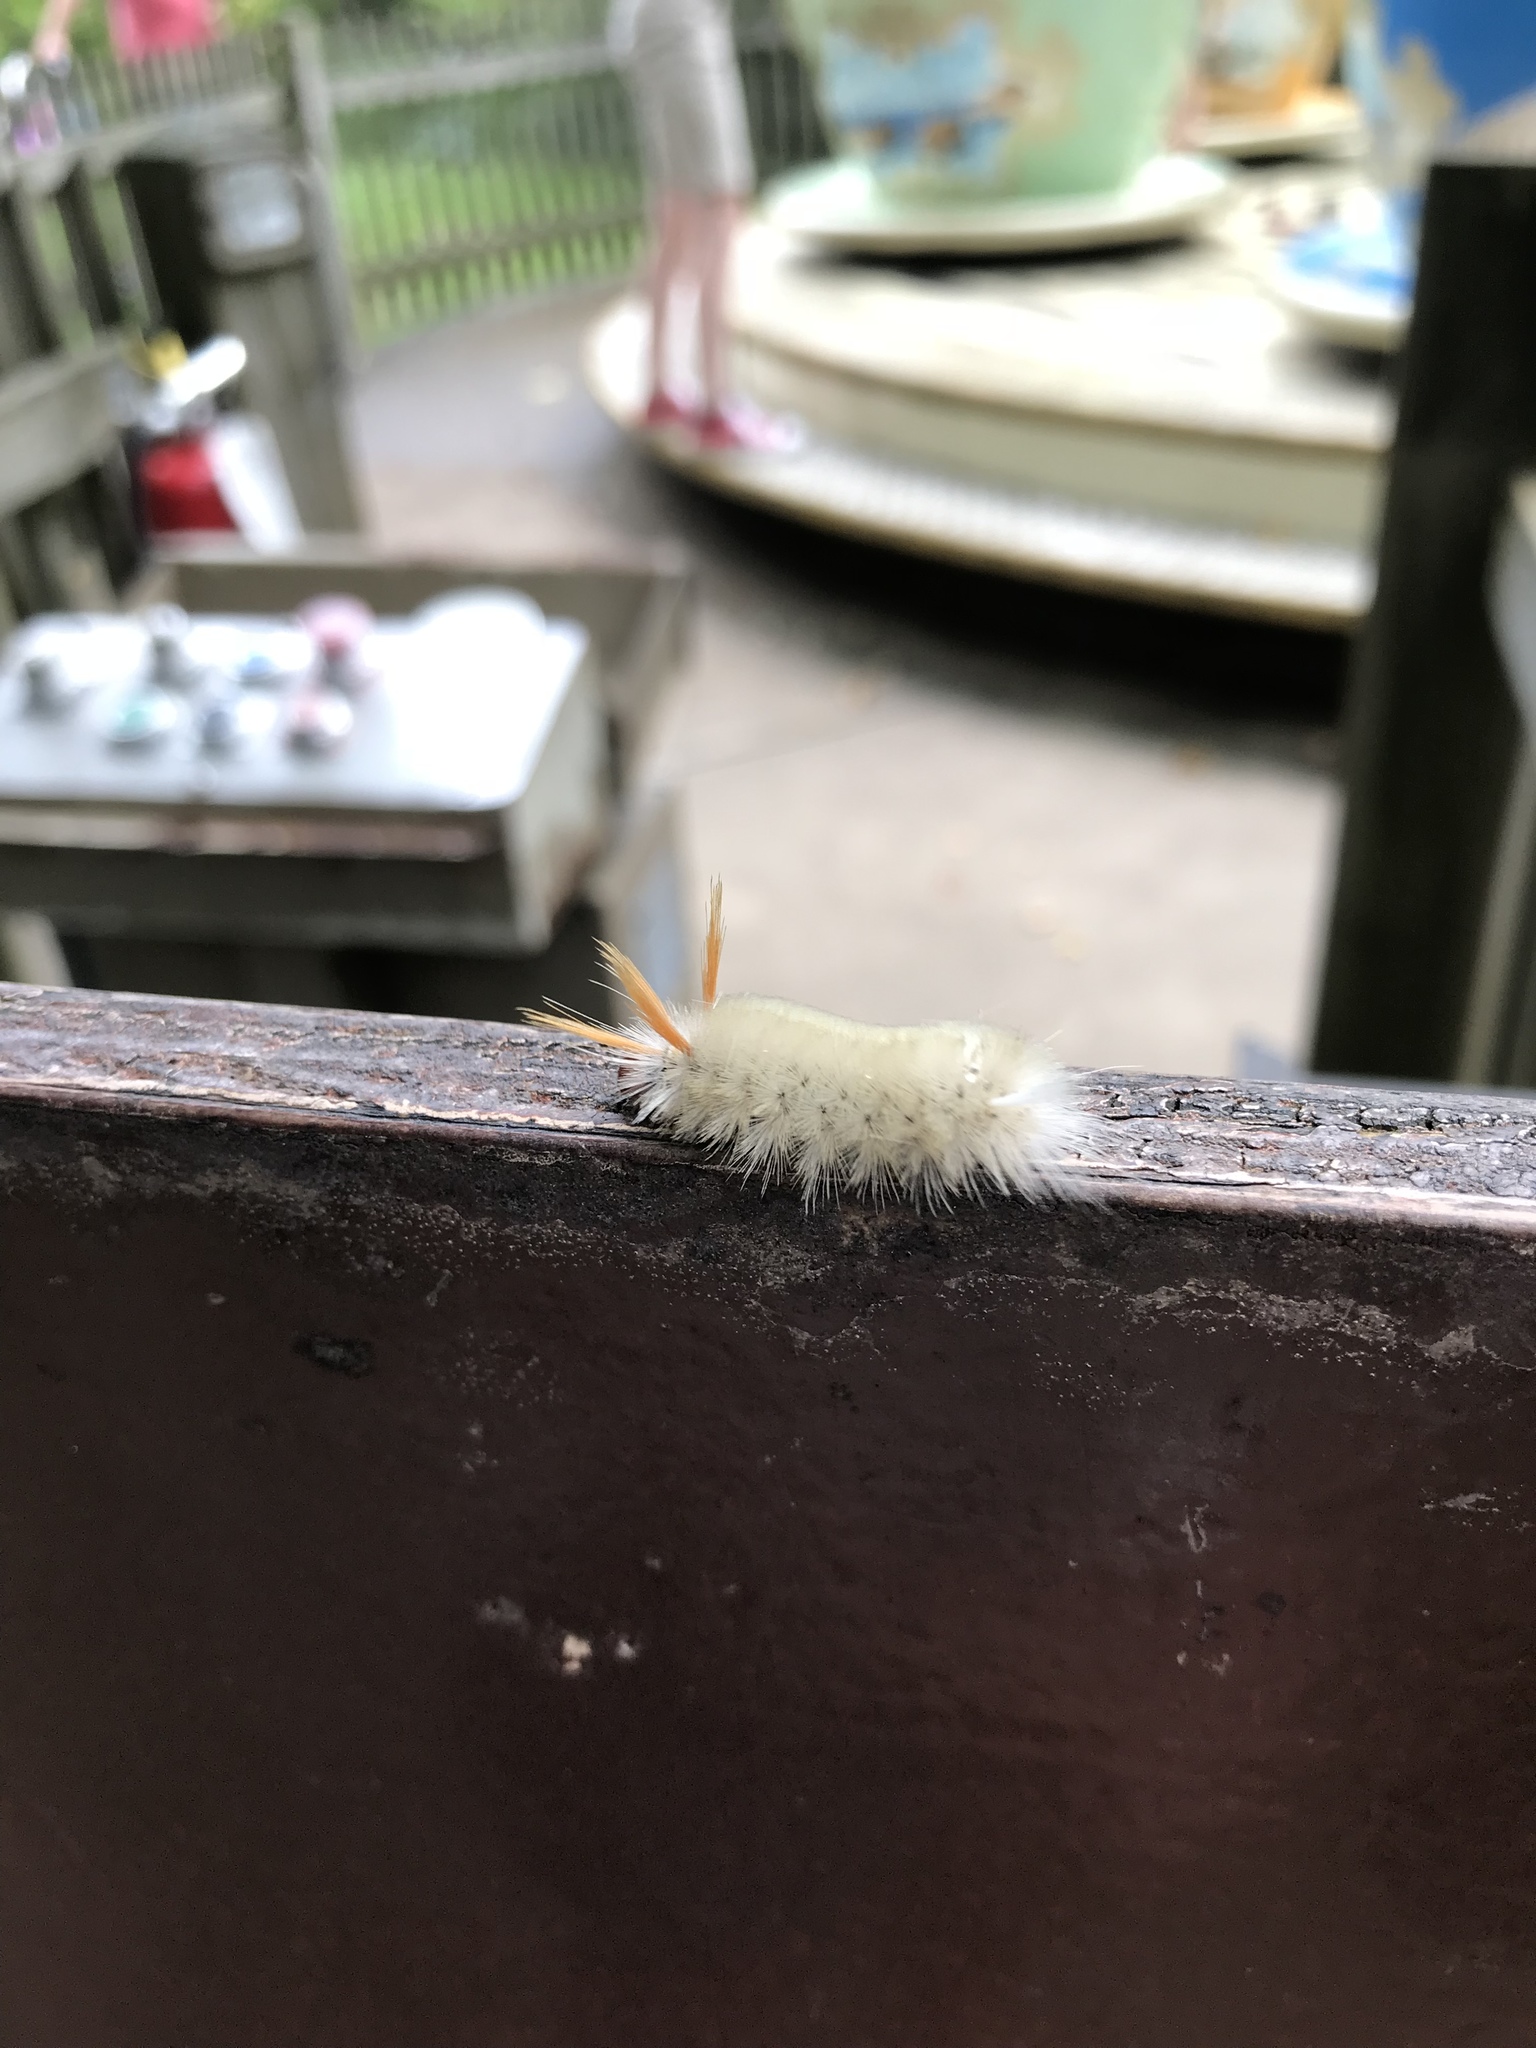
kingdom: Animalia
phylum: Arthropoda
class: Insecta
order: Lepidoptera
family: Erebidae
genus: Halysidota
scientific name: Halysidota harrisii
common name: Sycamore tussock moth
